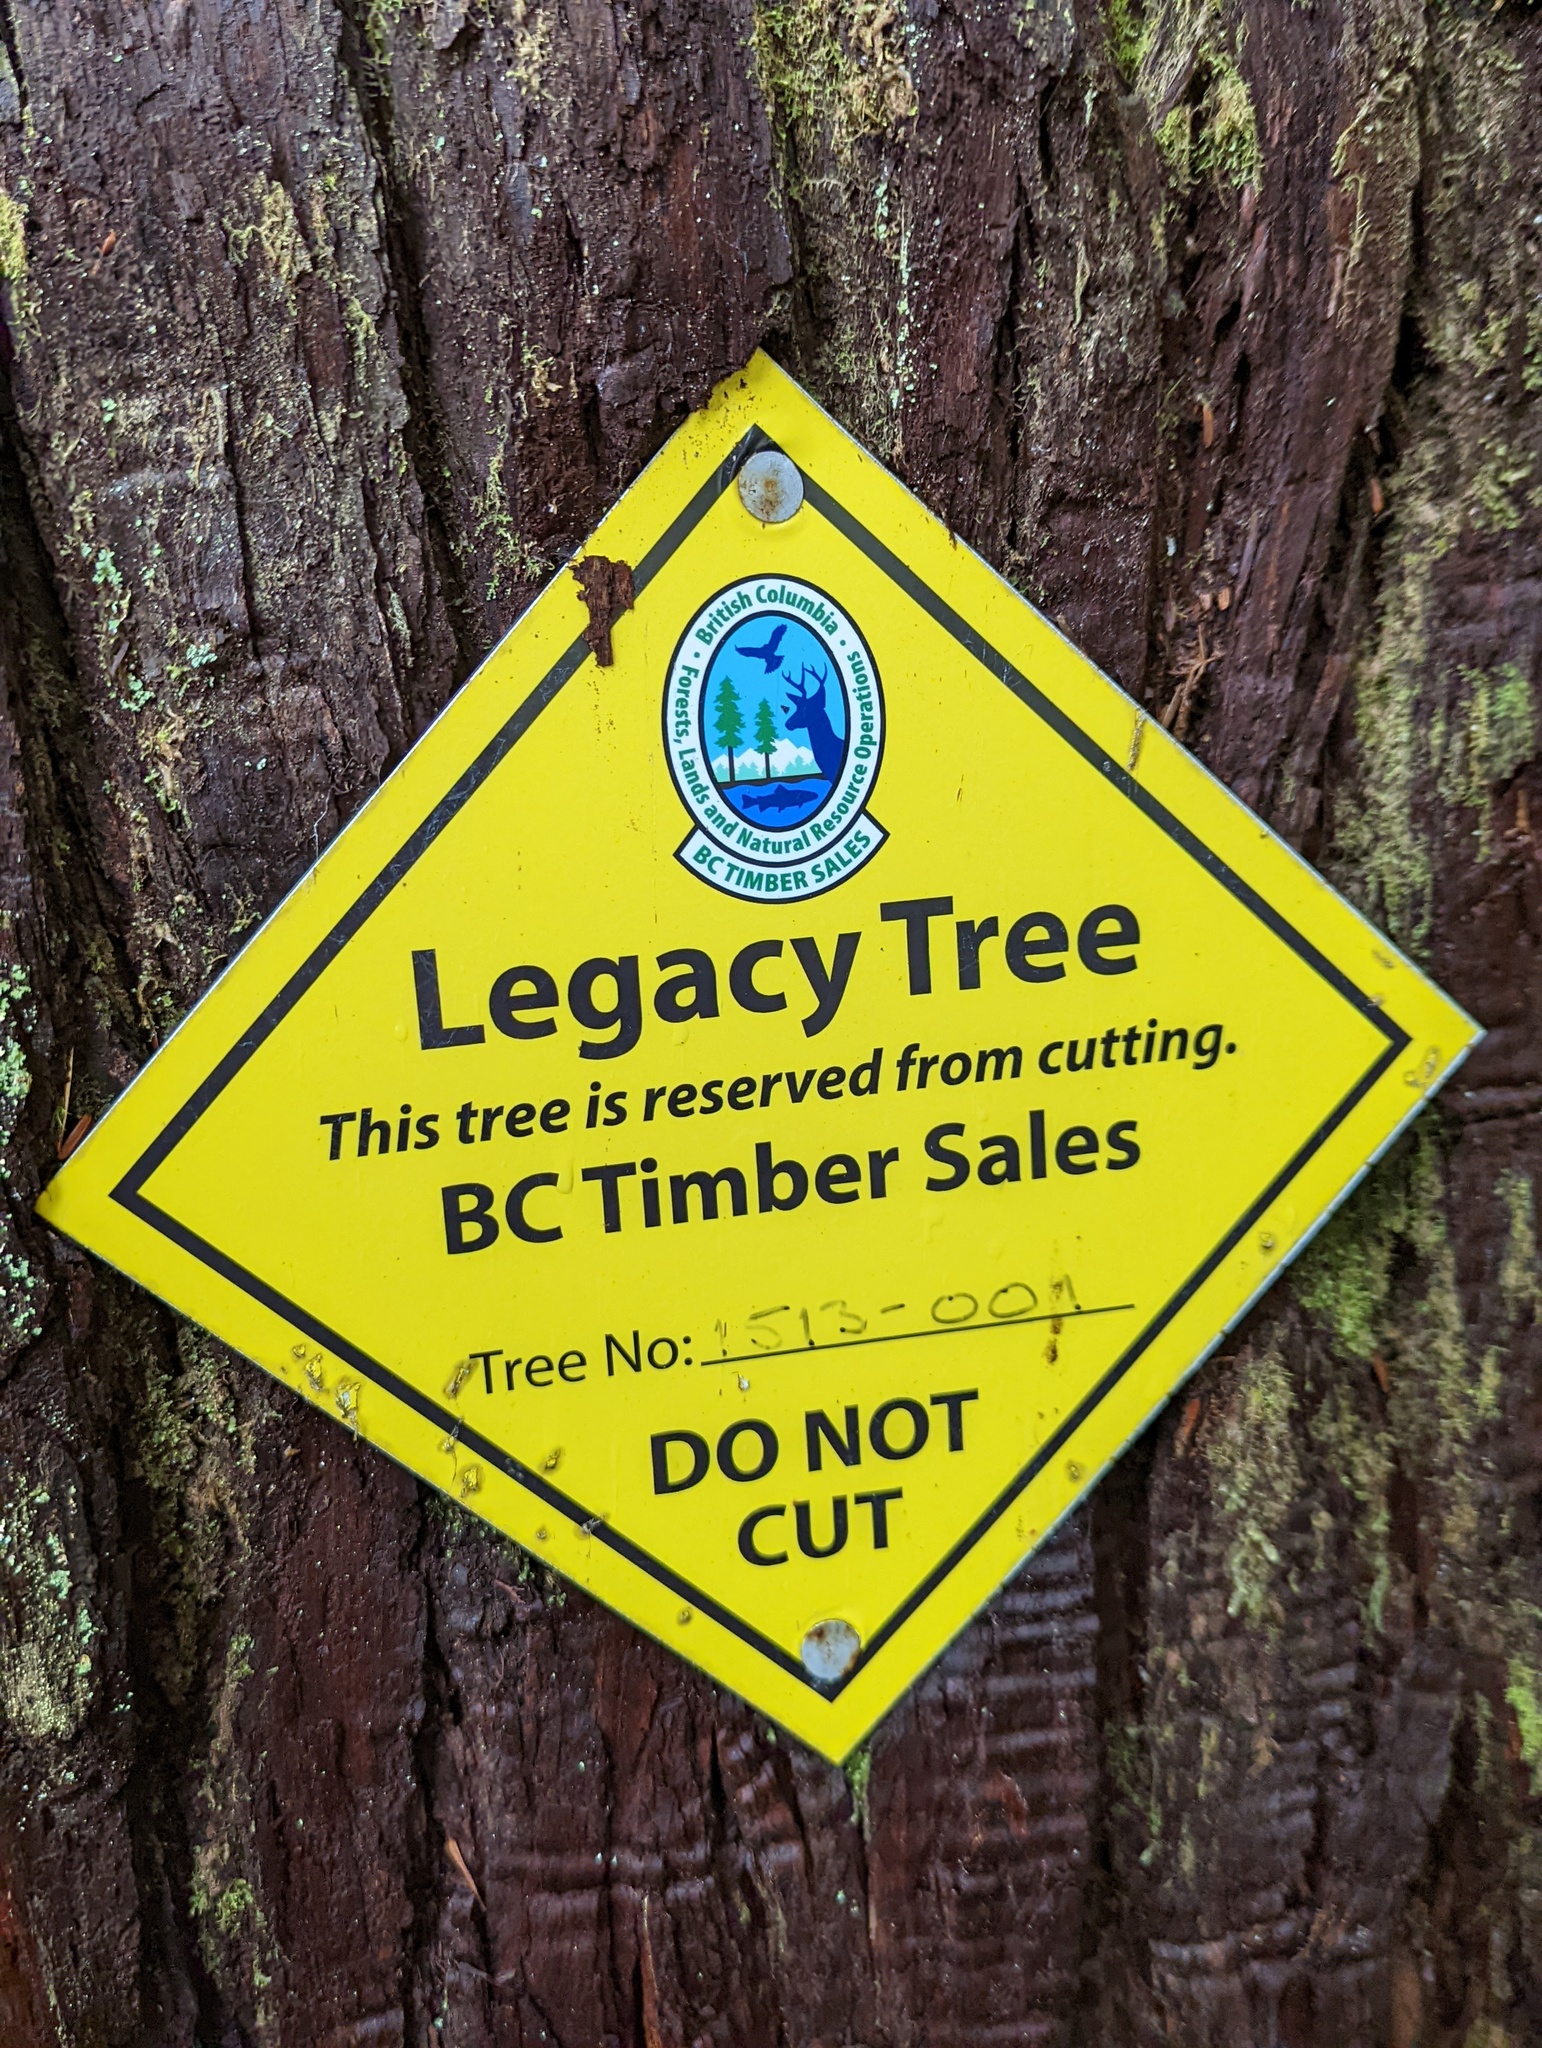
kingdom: Plantae
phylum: Tracheophyta
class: Pinopsida
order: Pinales
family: Pinaceae
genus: Pseudotsuga
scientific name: Pseudotsuga menziesii
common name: Douglas fir
